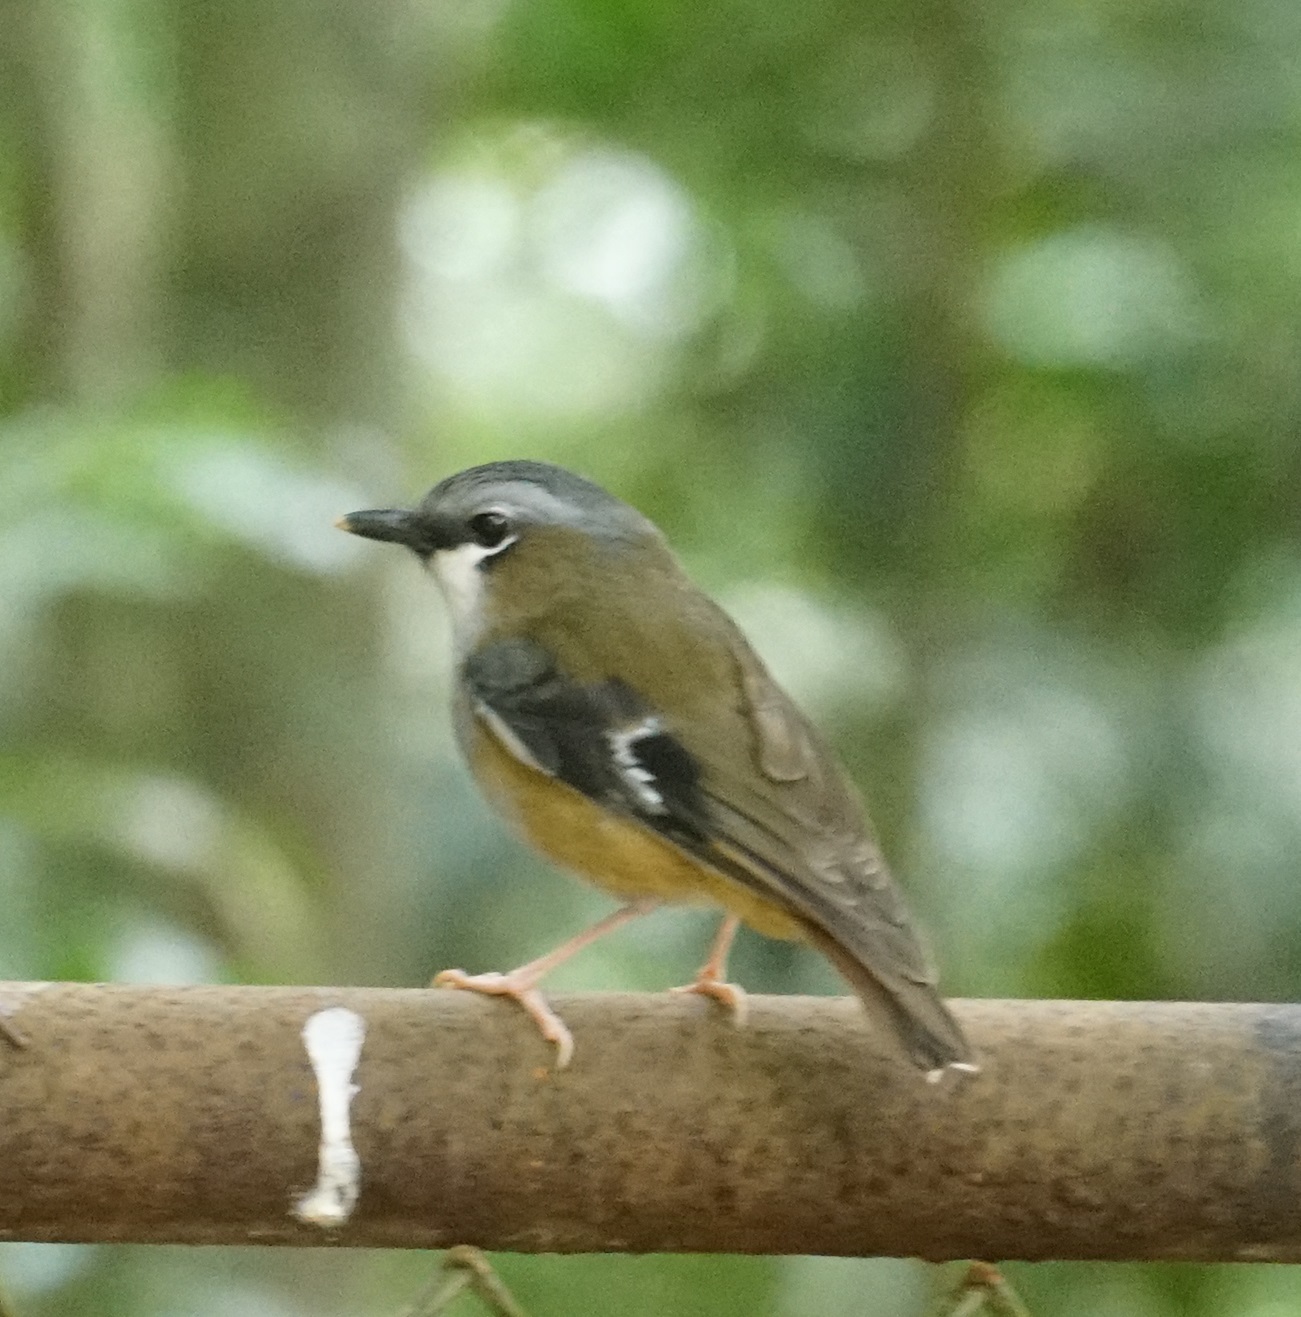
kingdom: Animalia
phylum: Chordata
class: Aves
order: Passeriformes
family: Petroicidae
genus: Heteromyias
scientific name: Heteromyias cinereifrons
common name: Grey-headed robin
